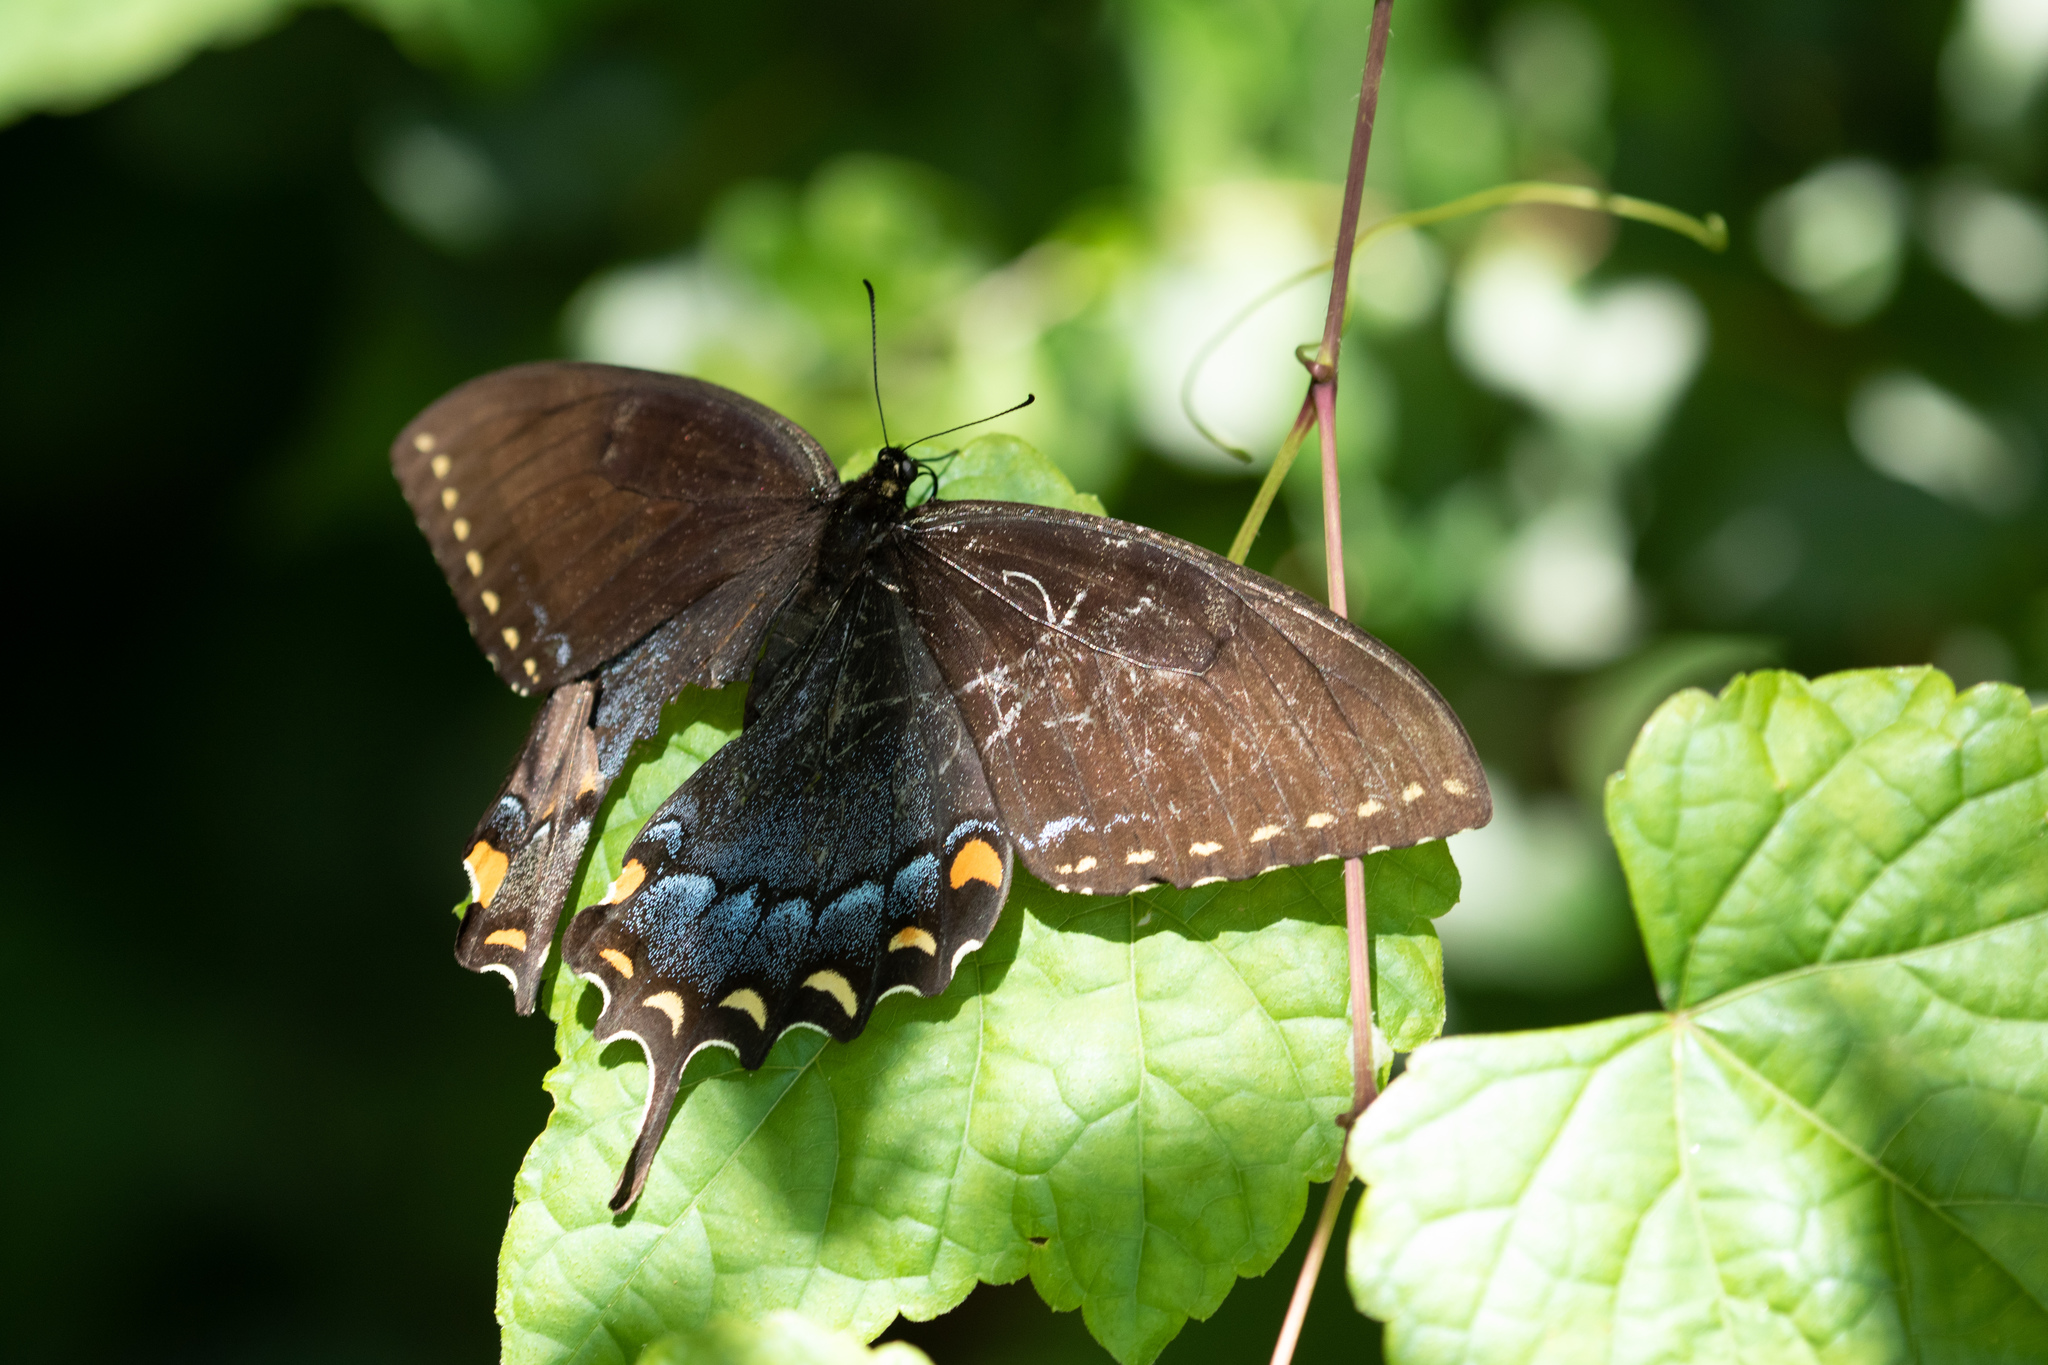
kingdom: Animalia
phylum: Arthropoda
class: Insecta
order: Lepidoptera
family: Papilionidae
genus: Papilio
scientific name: Papilio glaucus
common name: Tiger swallowtail
